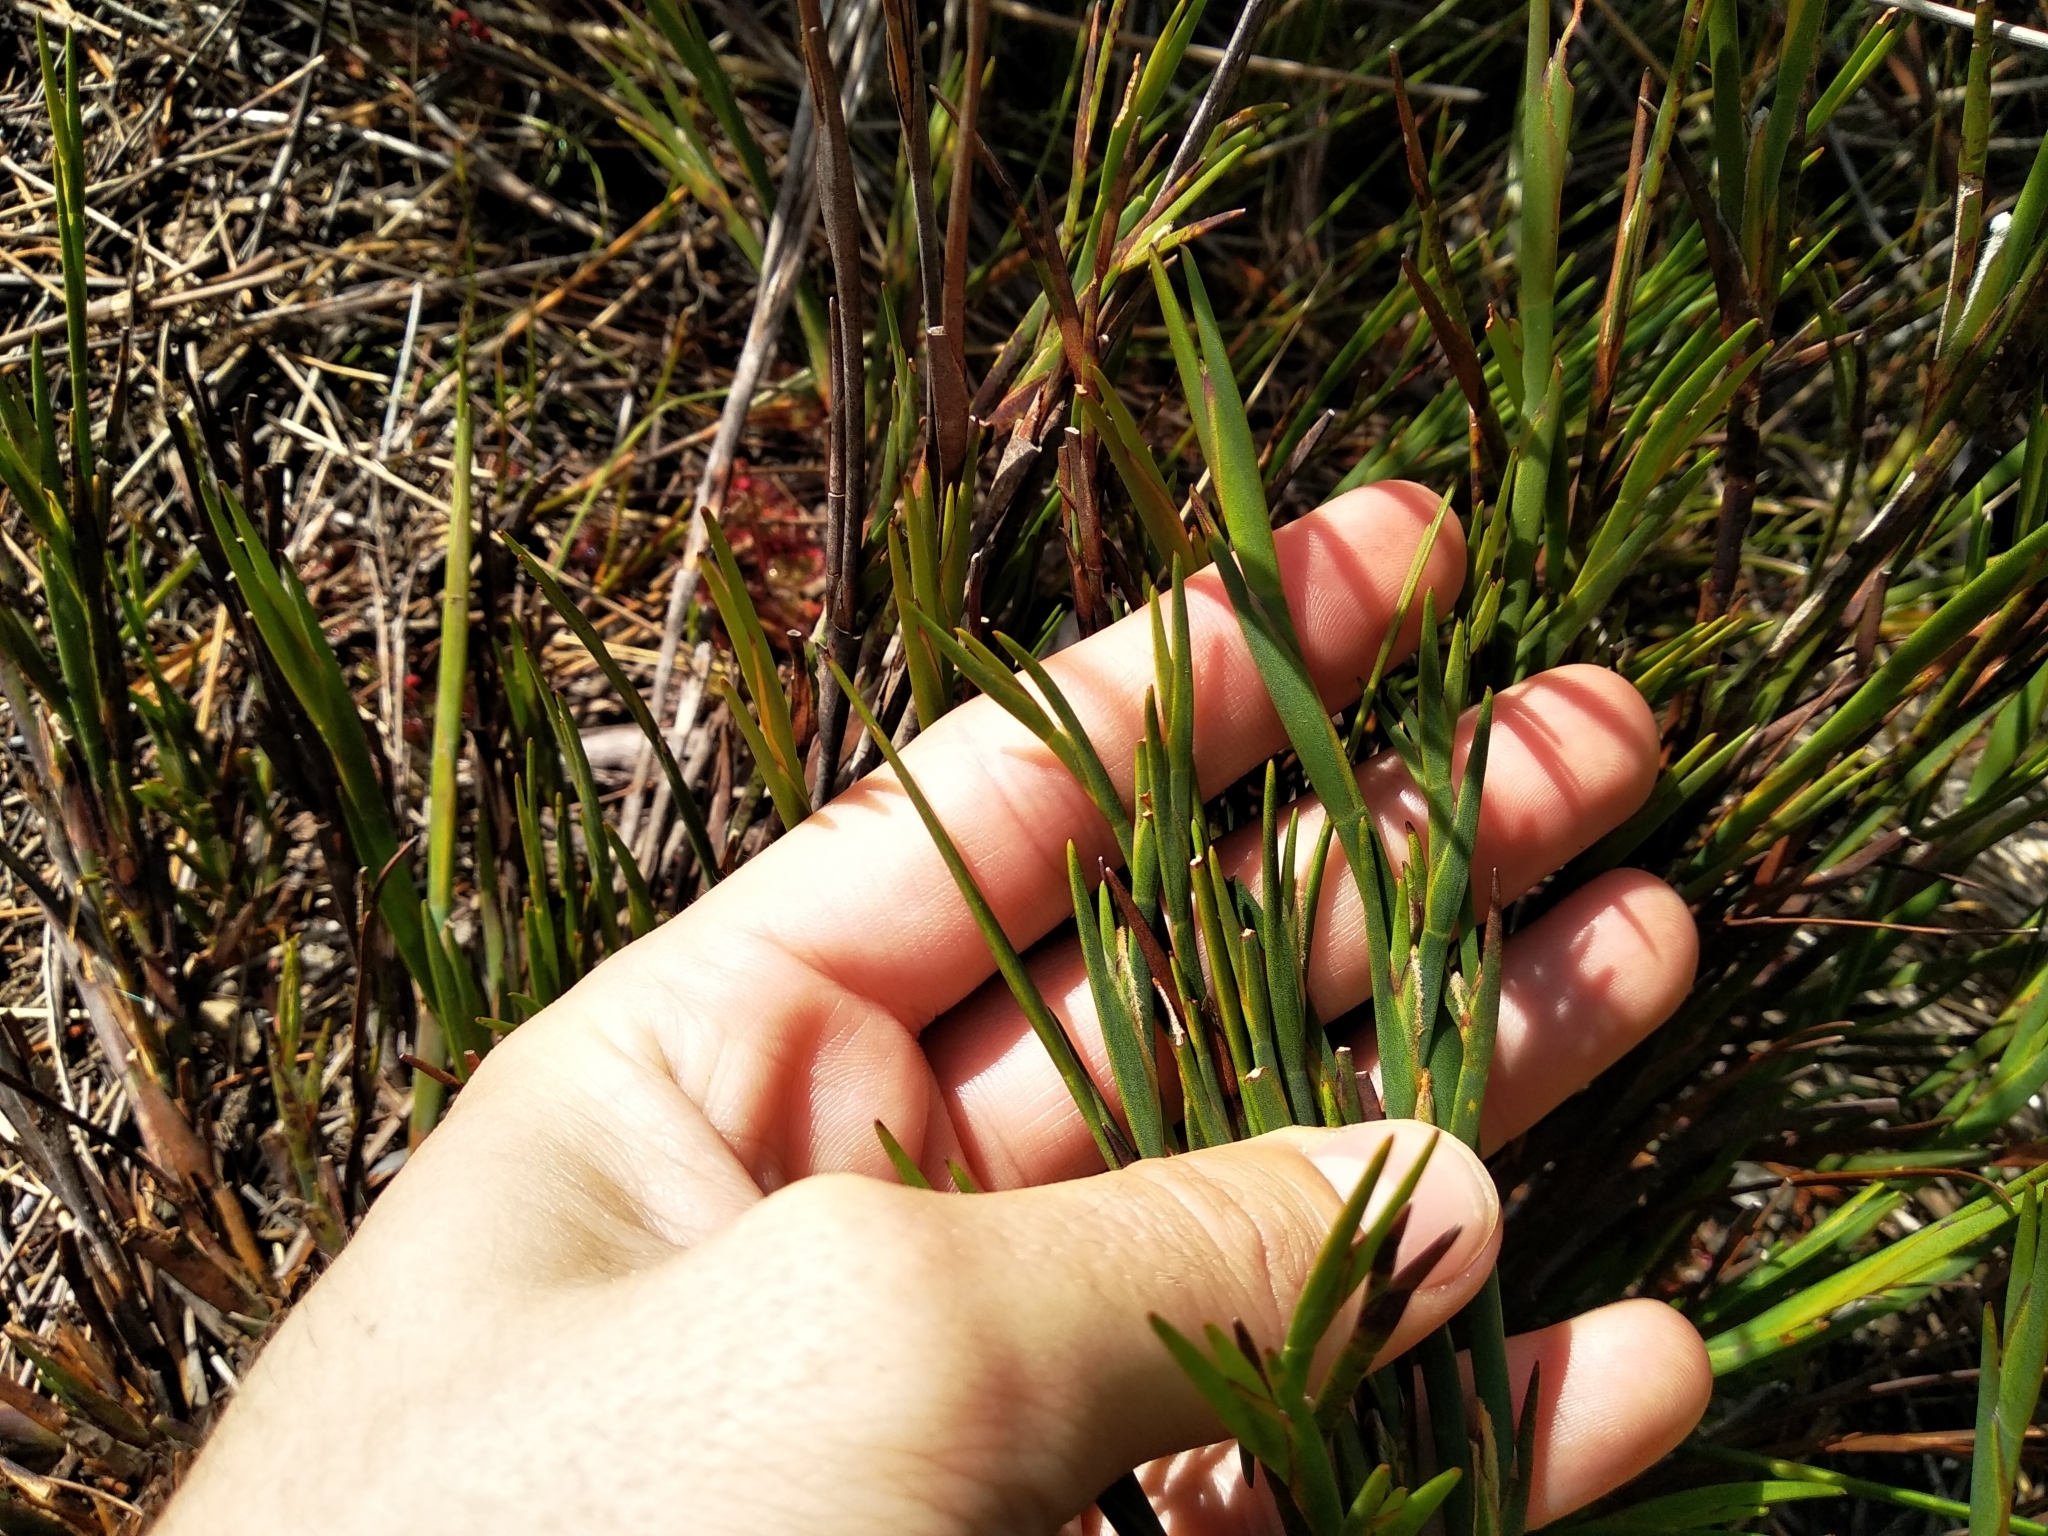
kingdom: Plantae
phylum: Tracheophyta
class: Liliopsida
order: Poales
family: Restionaceae
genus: Platycaulos
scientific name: Platycaulos major
